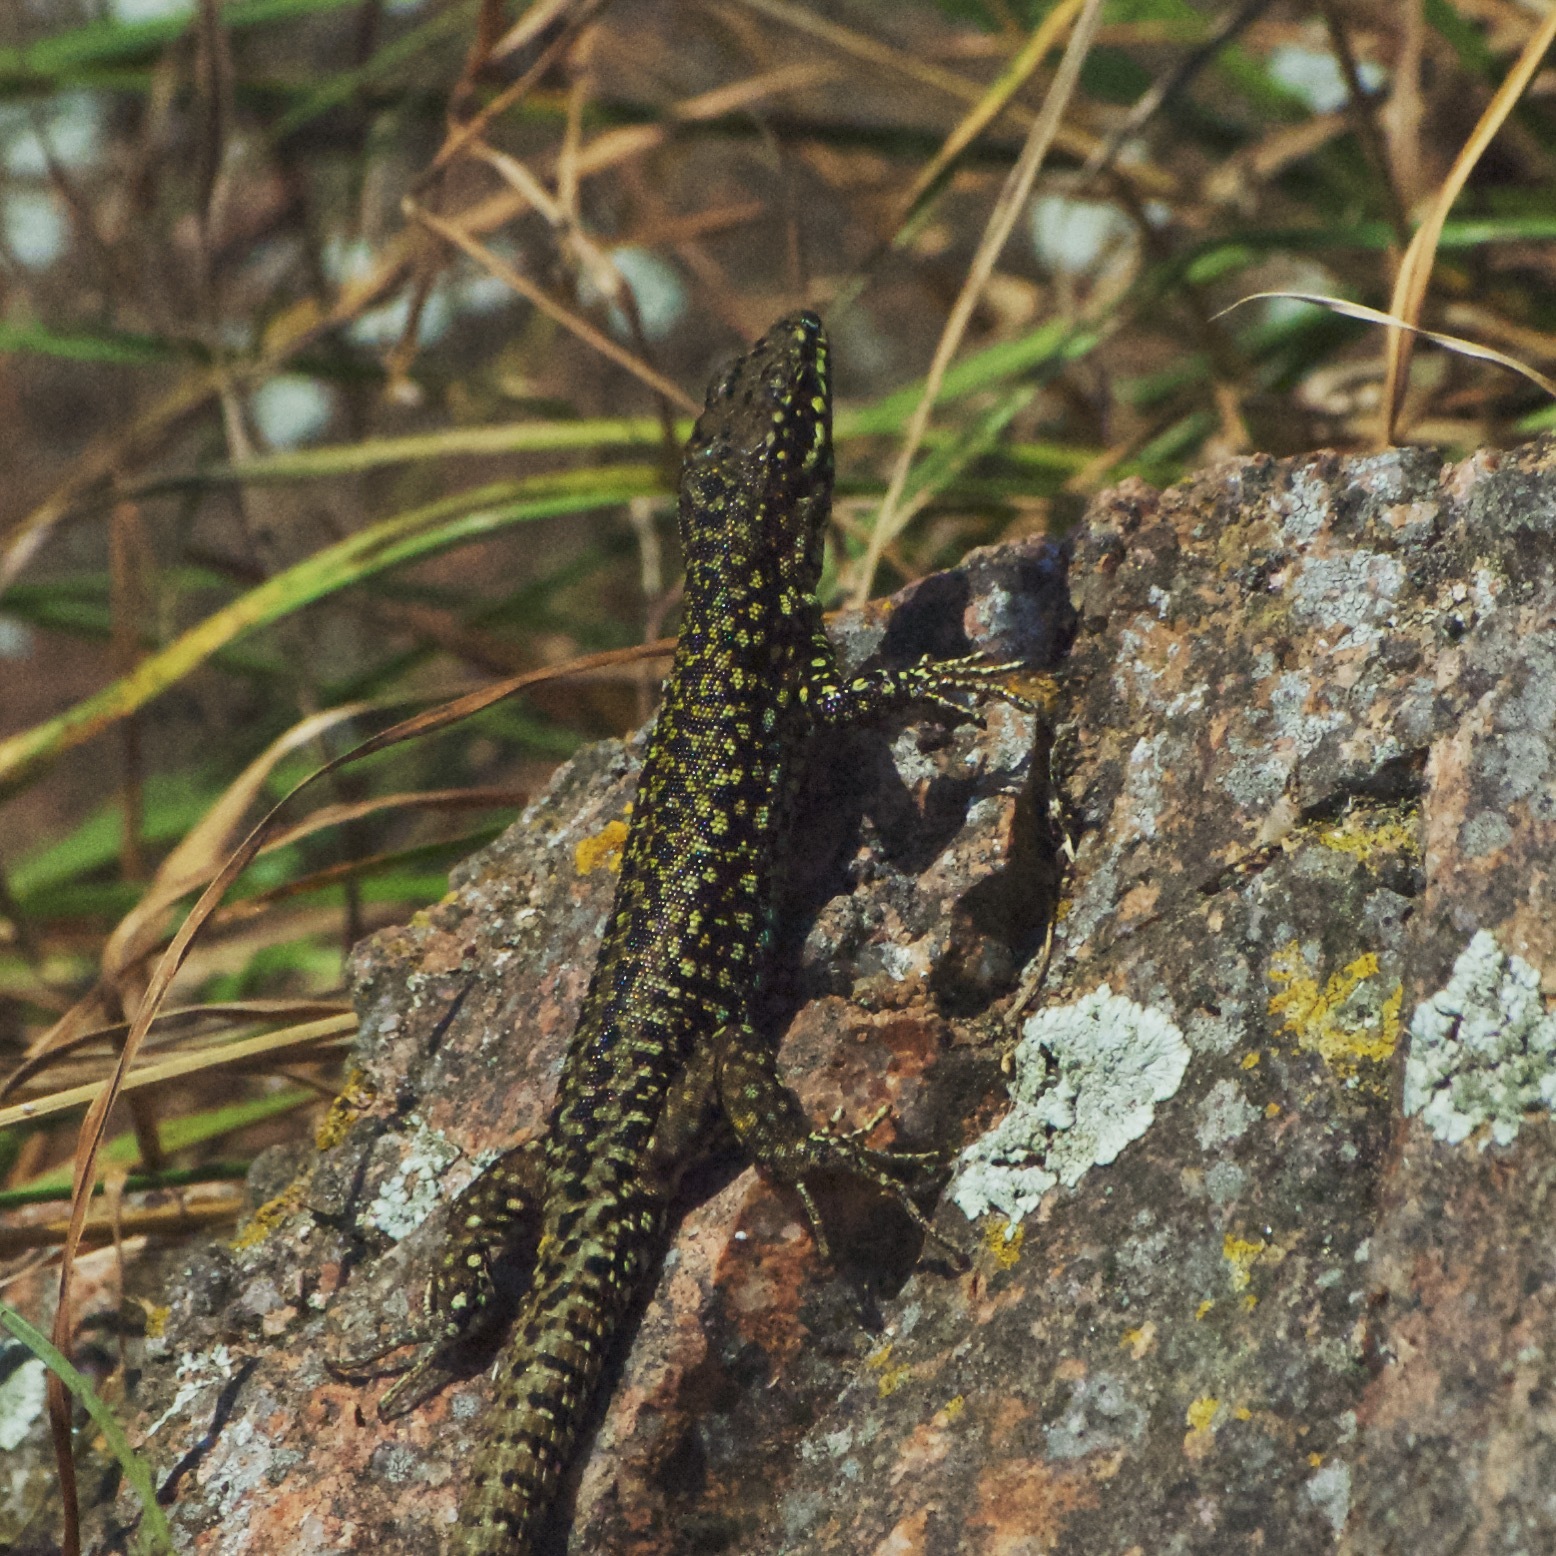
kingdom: Animalia
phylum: Chordata
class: Squamata
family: Lacertidae
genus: Podarcis
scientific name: Podarcis muralis
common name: Common wall lizard
